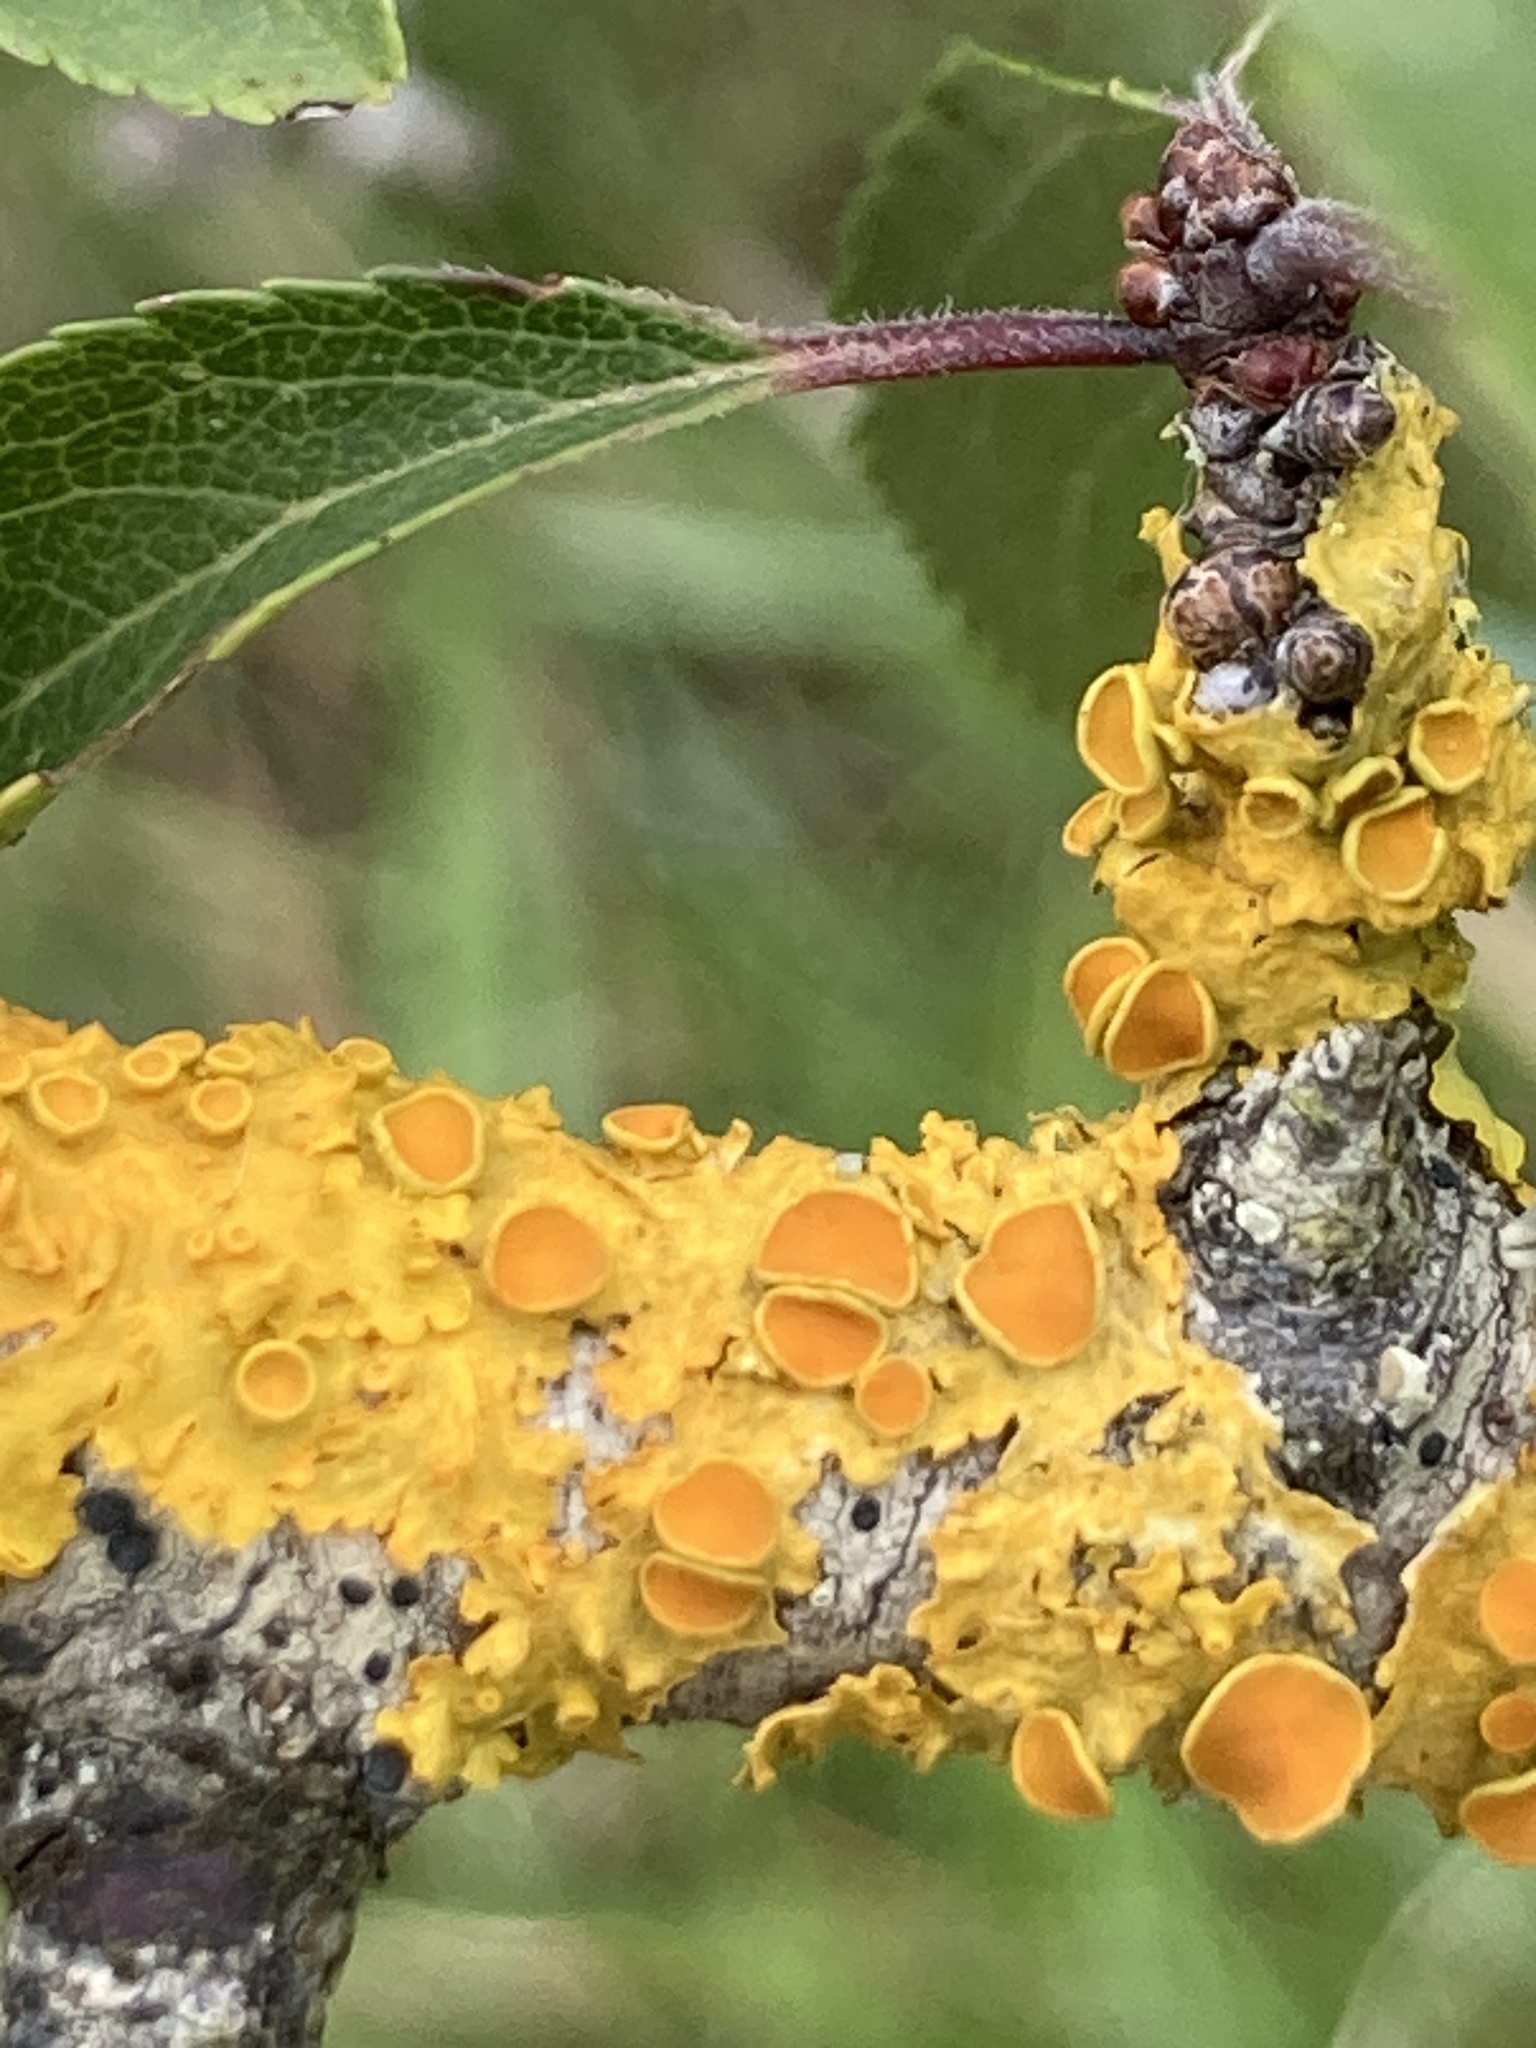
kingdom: Fungi
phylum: Ascomycota
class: Lecanoromycetes
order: Teloschistales
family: Teloschistaceae
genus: Xanthoria
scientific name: Xanthoria parietina
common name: Common orange lichen
